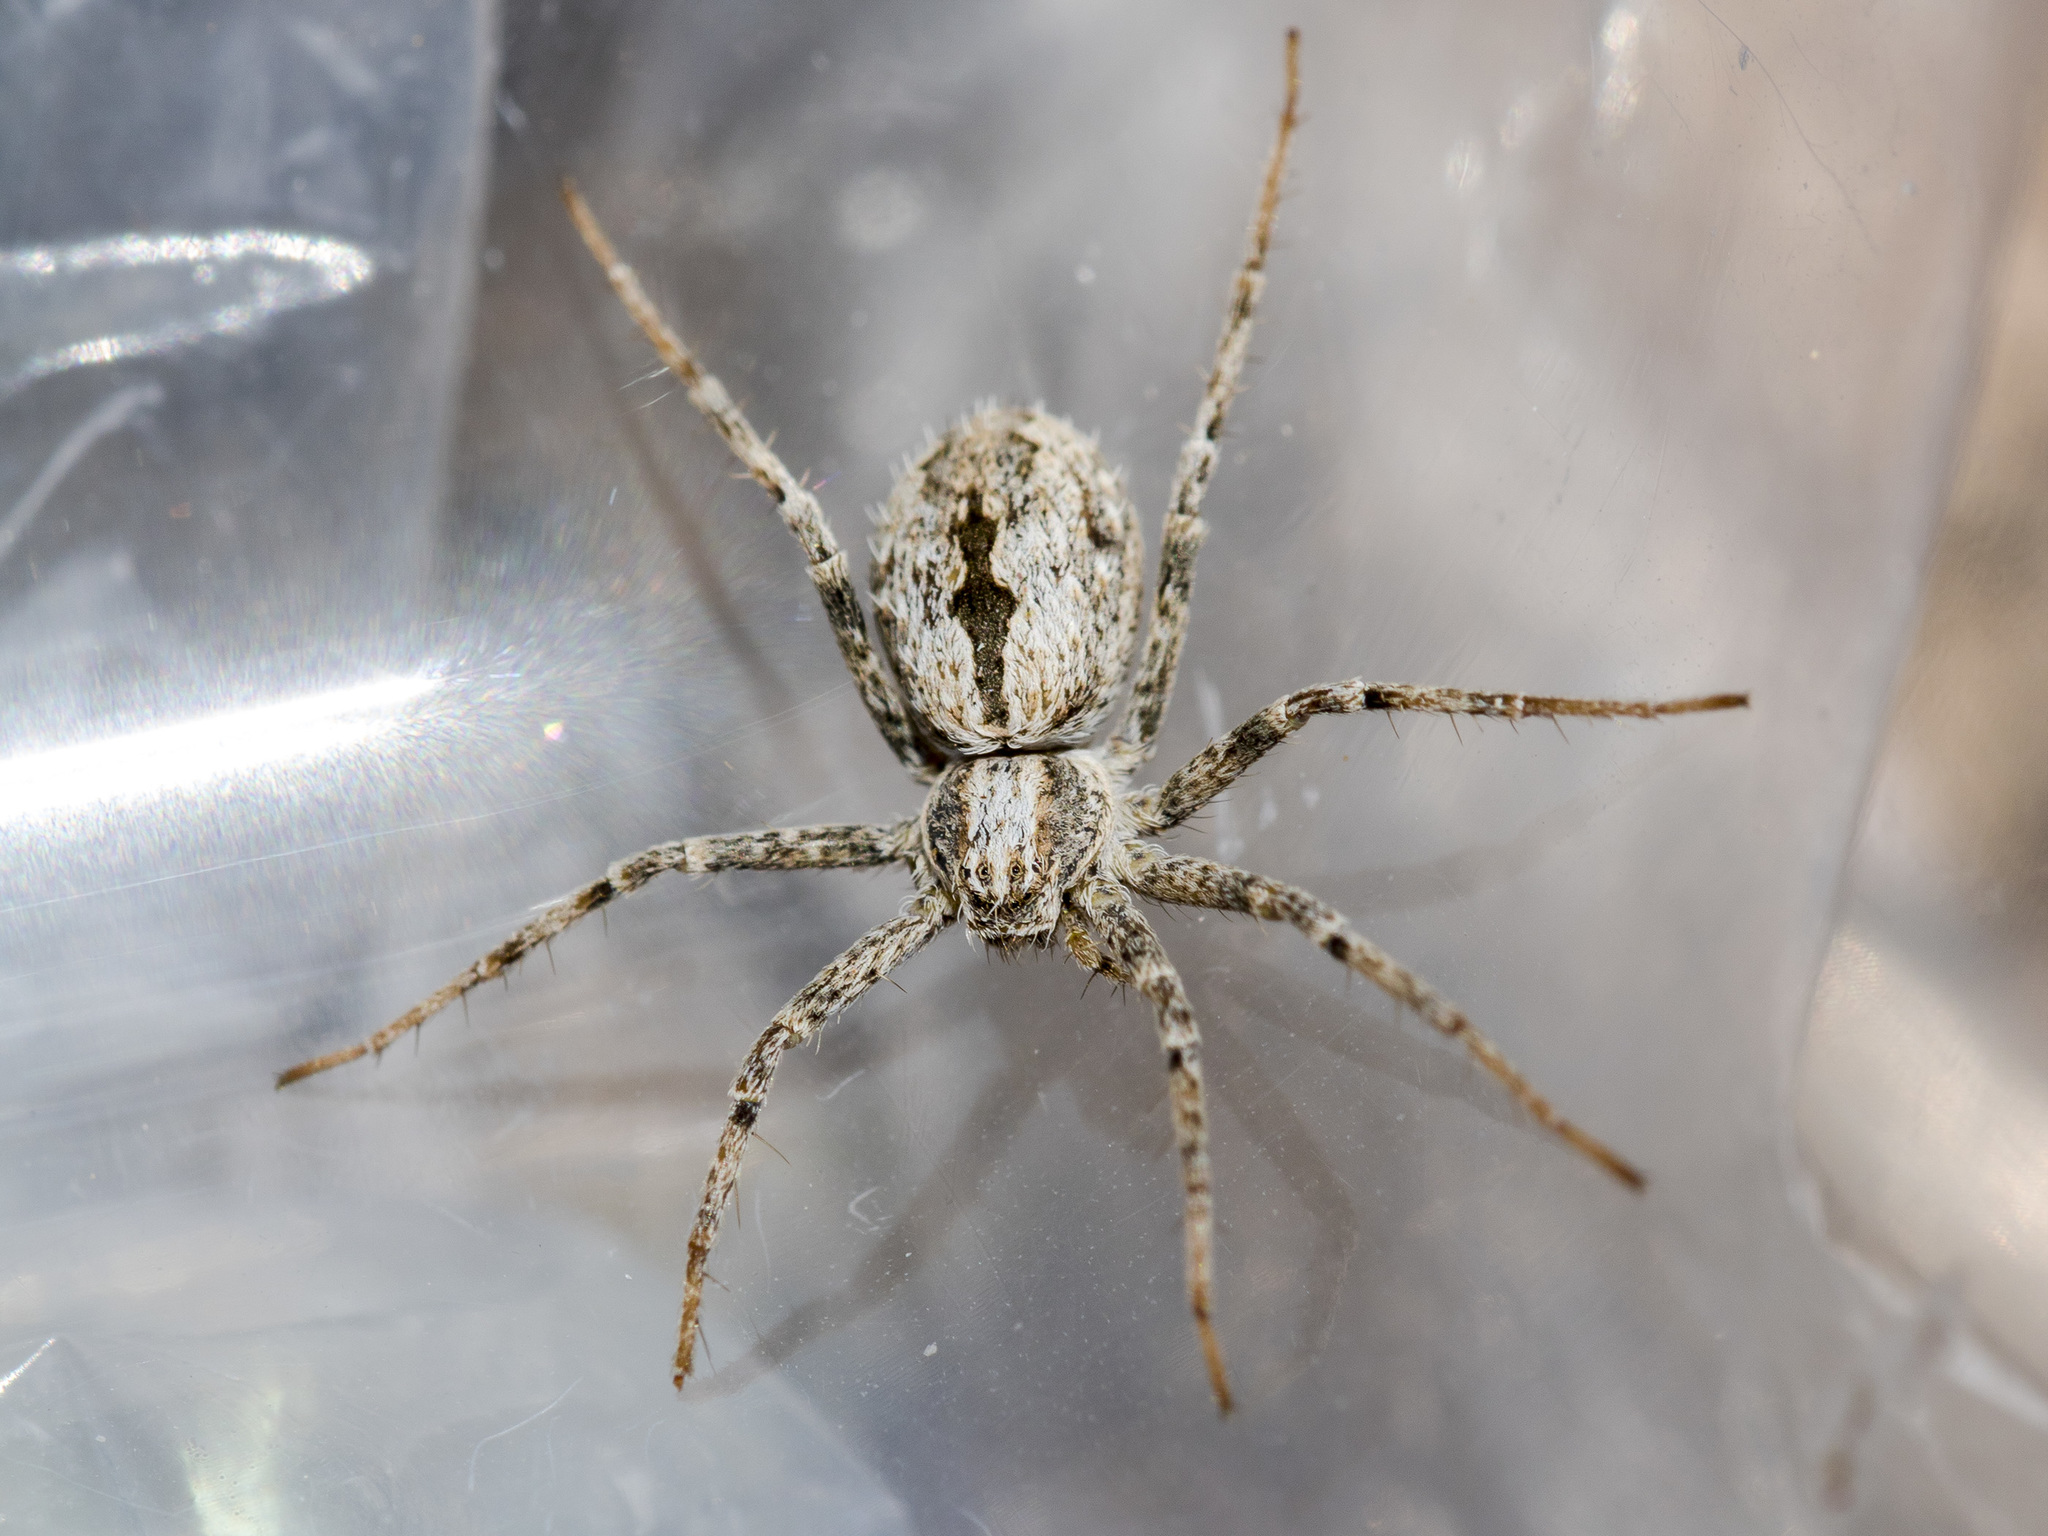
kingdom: Animalia
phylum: Arthropoda
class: Arachnida
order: Araneae
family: Philodromidae
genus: Thanatus
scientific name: Thanatus kitabensis
